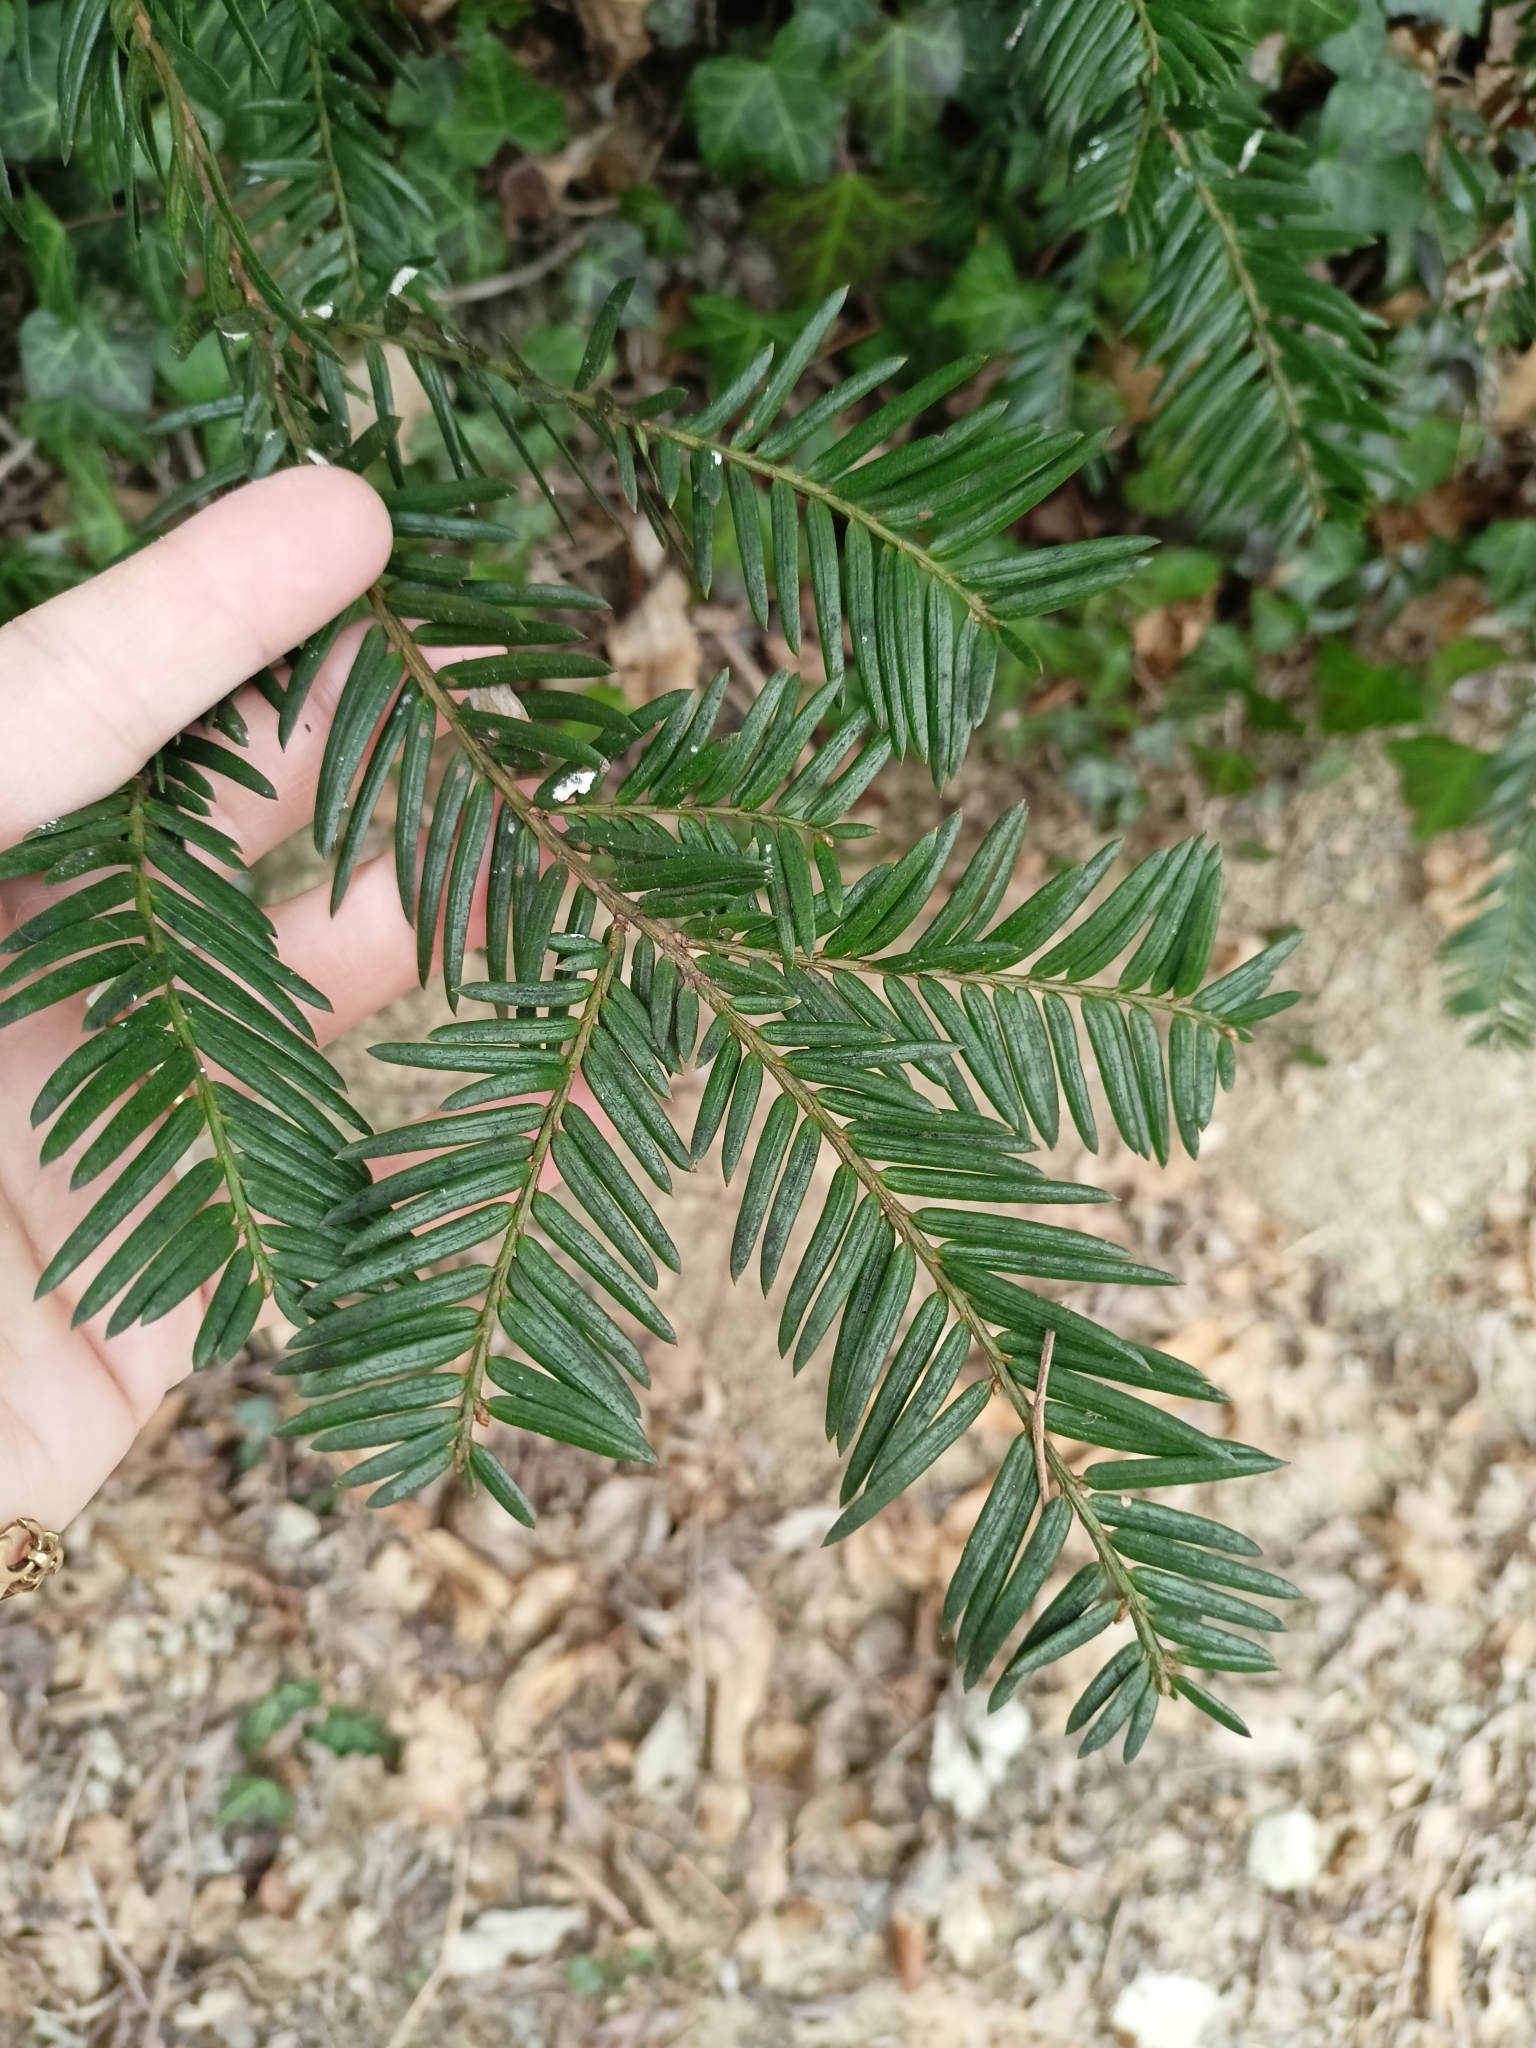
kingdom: Plantae
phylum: Tracheophyta
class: Pinopsida
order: Pinales
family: Taxaceae
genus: Taxus
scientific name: Taxus baccata
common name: Yew
